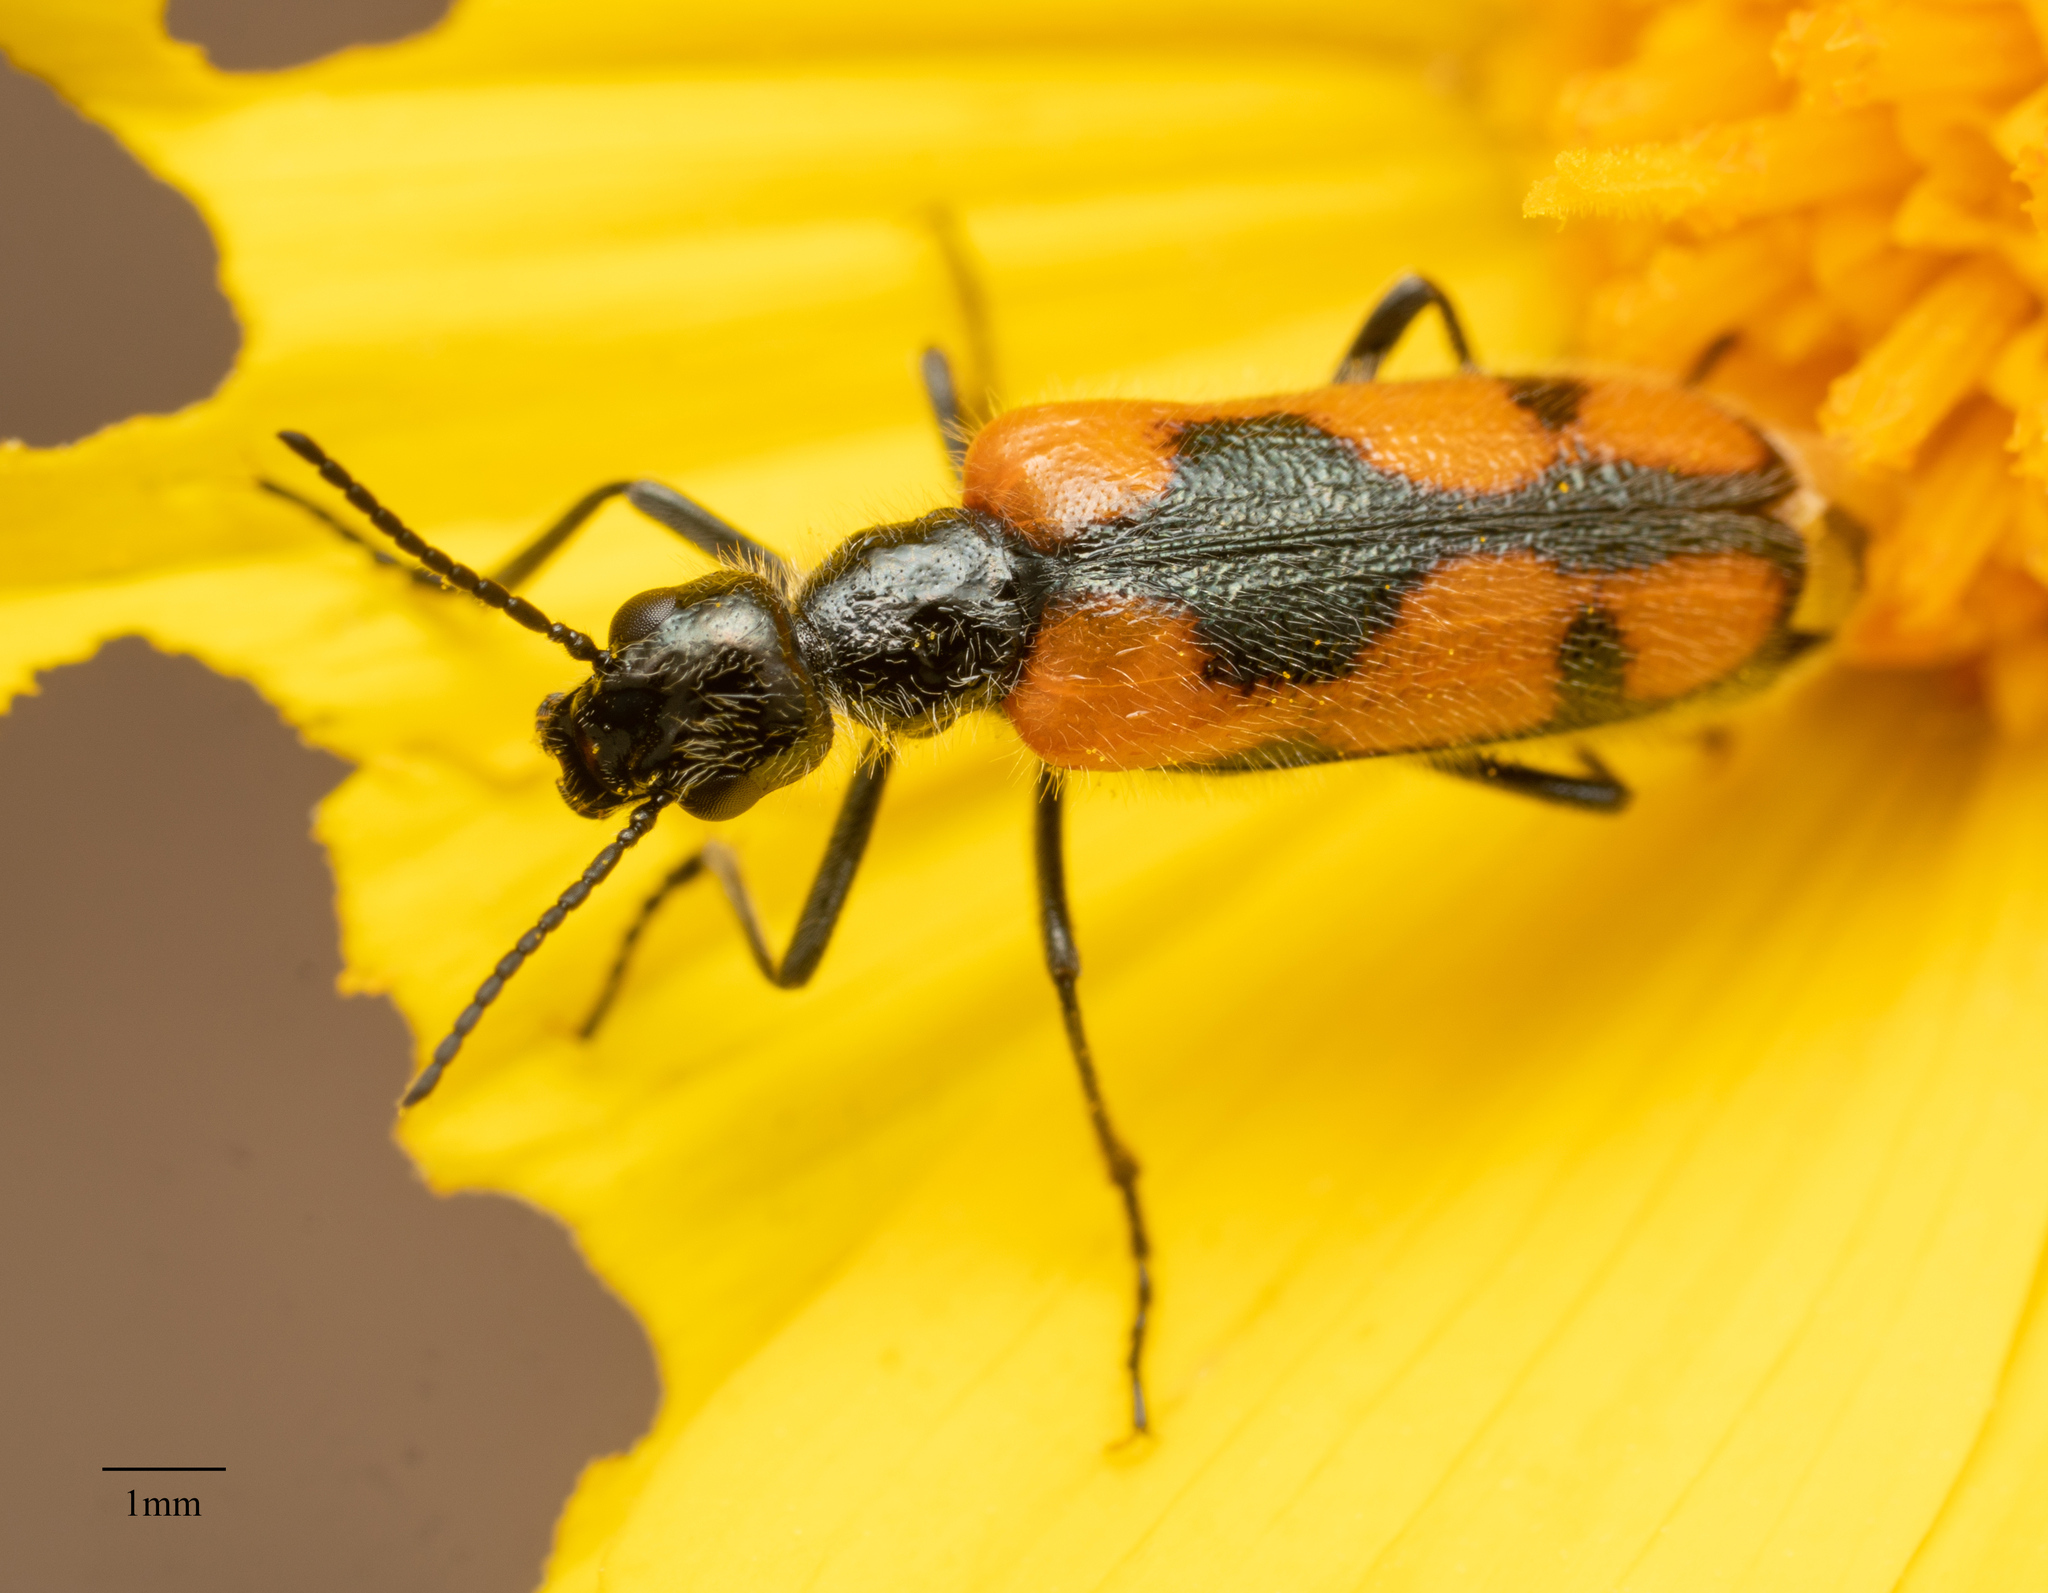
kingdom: Animalia
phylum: Arthropoda
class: Insecta
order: Coleoptera
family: Meloidae
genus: Eupompha
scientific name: Eupompha elegans
